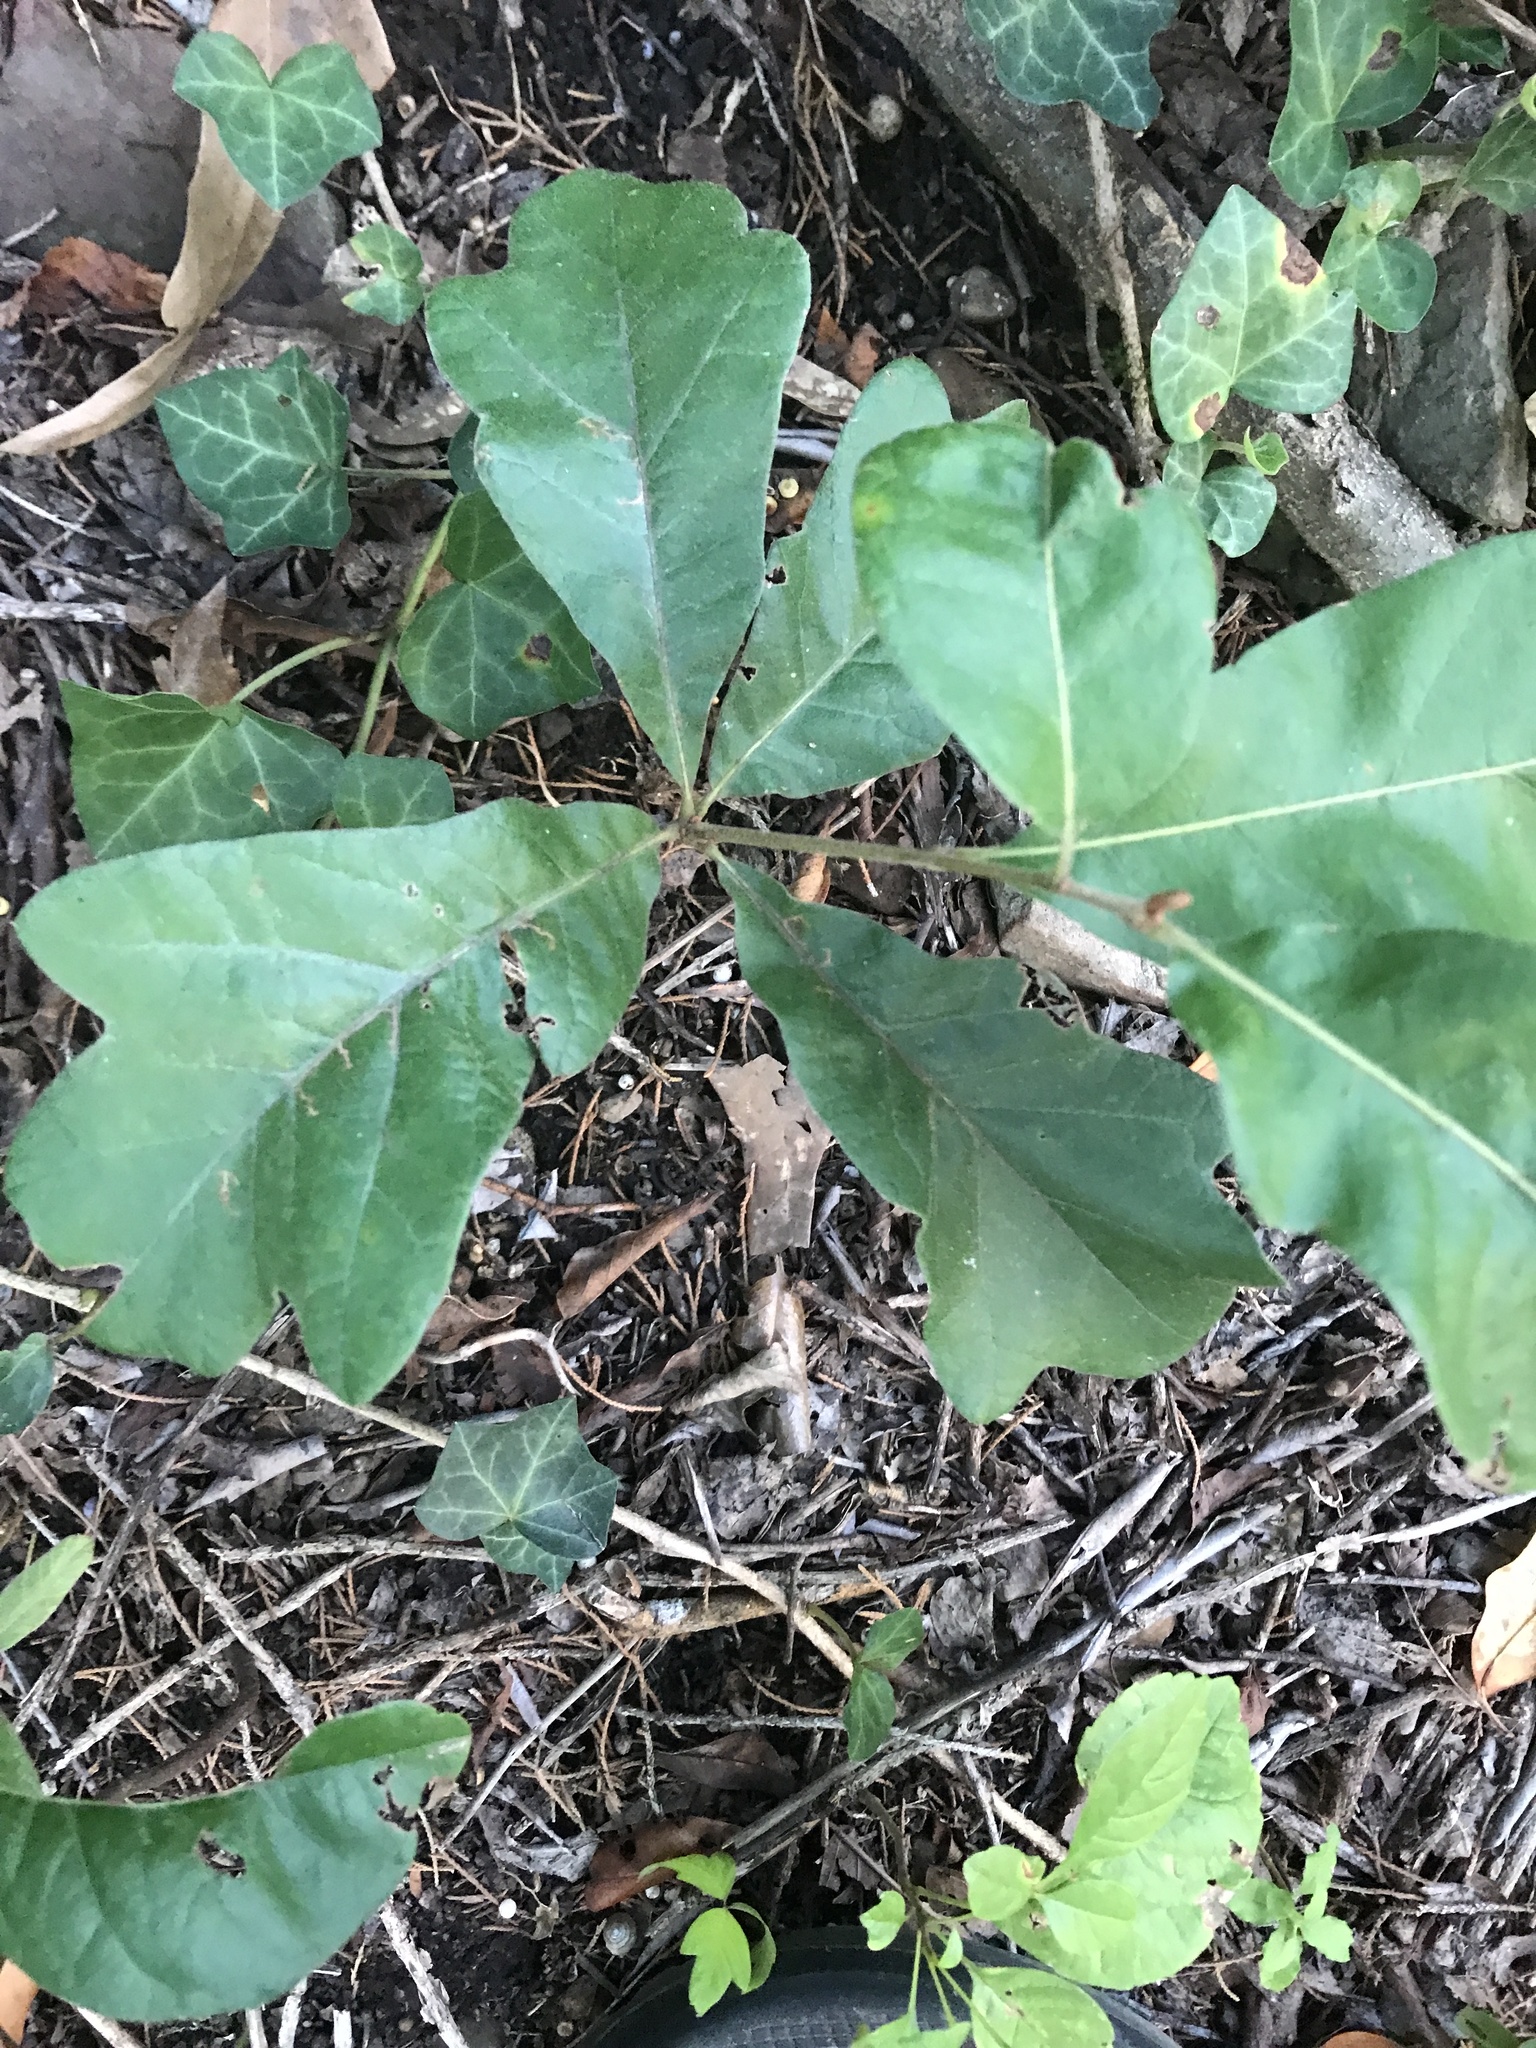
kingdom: Plantae
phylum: Tracheophyta
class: Magnoliopsida
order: Fagales
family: Fagaceae
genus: Quercus
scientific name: Quercus falcata
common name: Southern red oak
